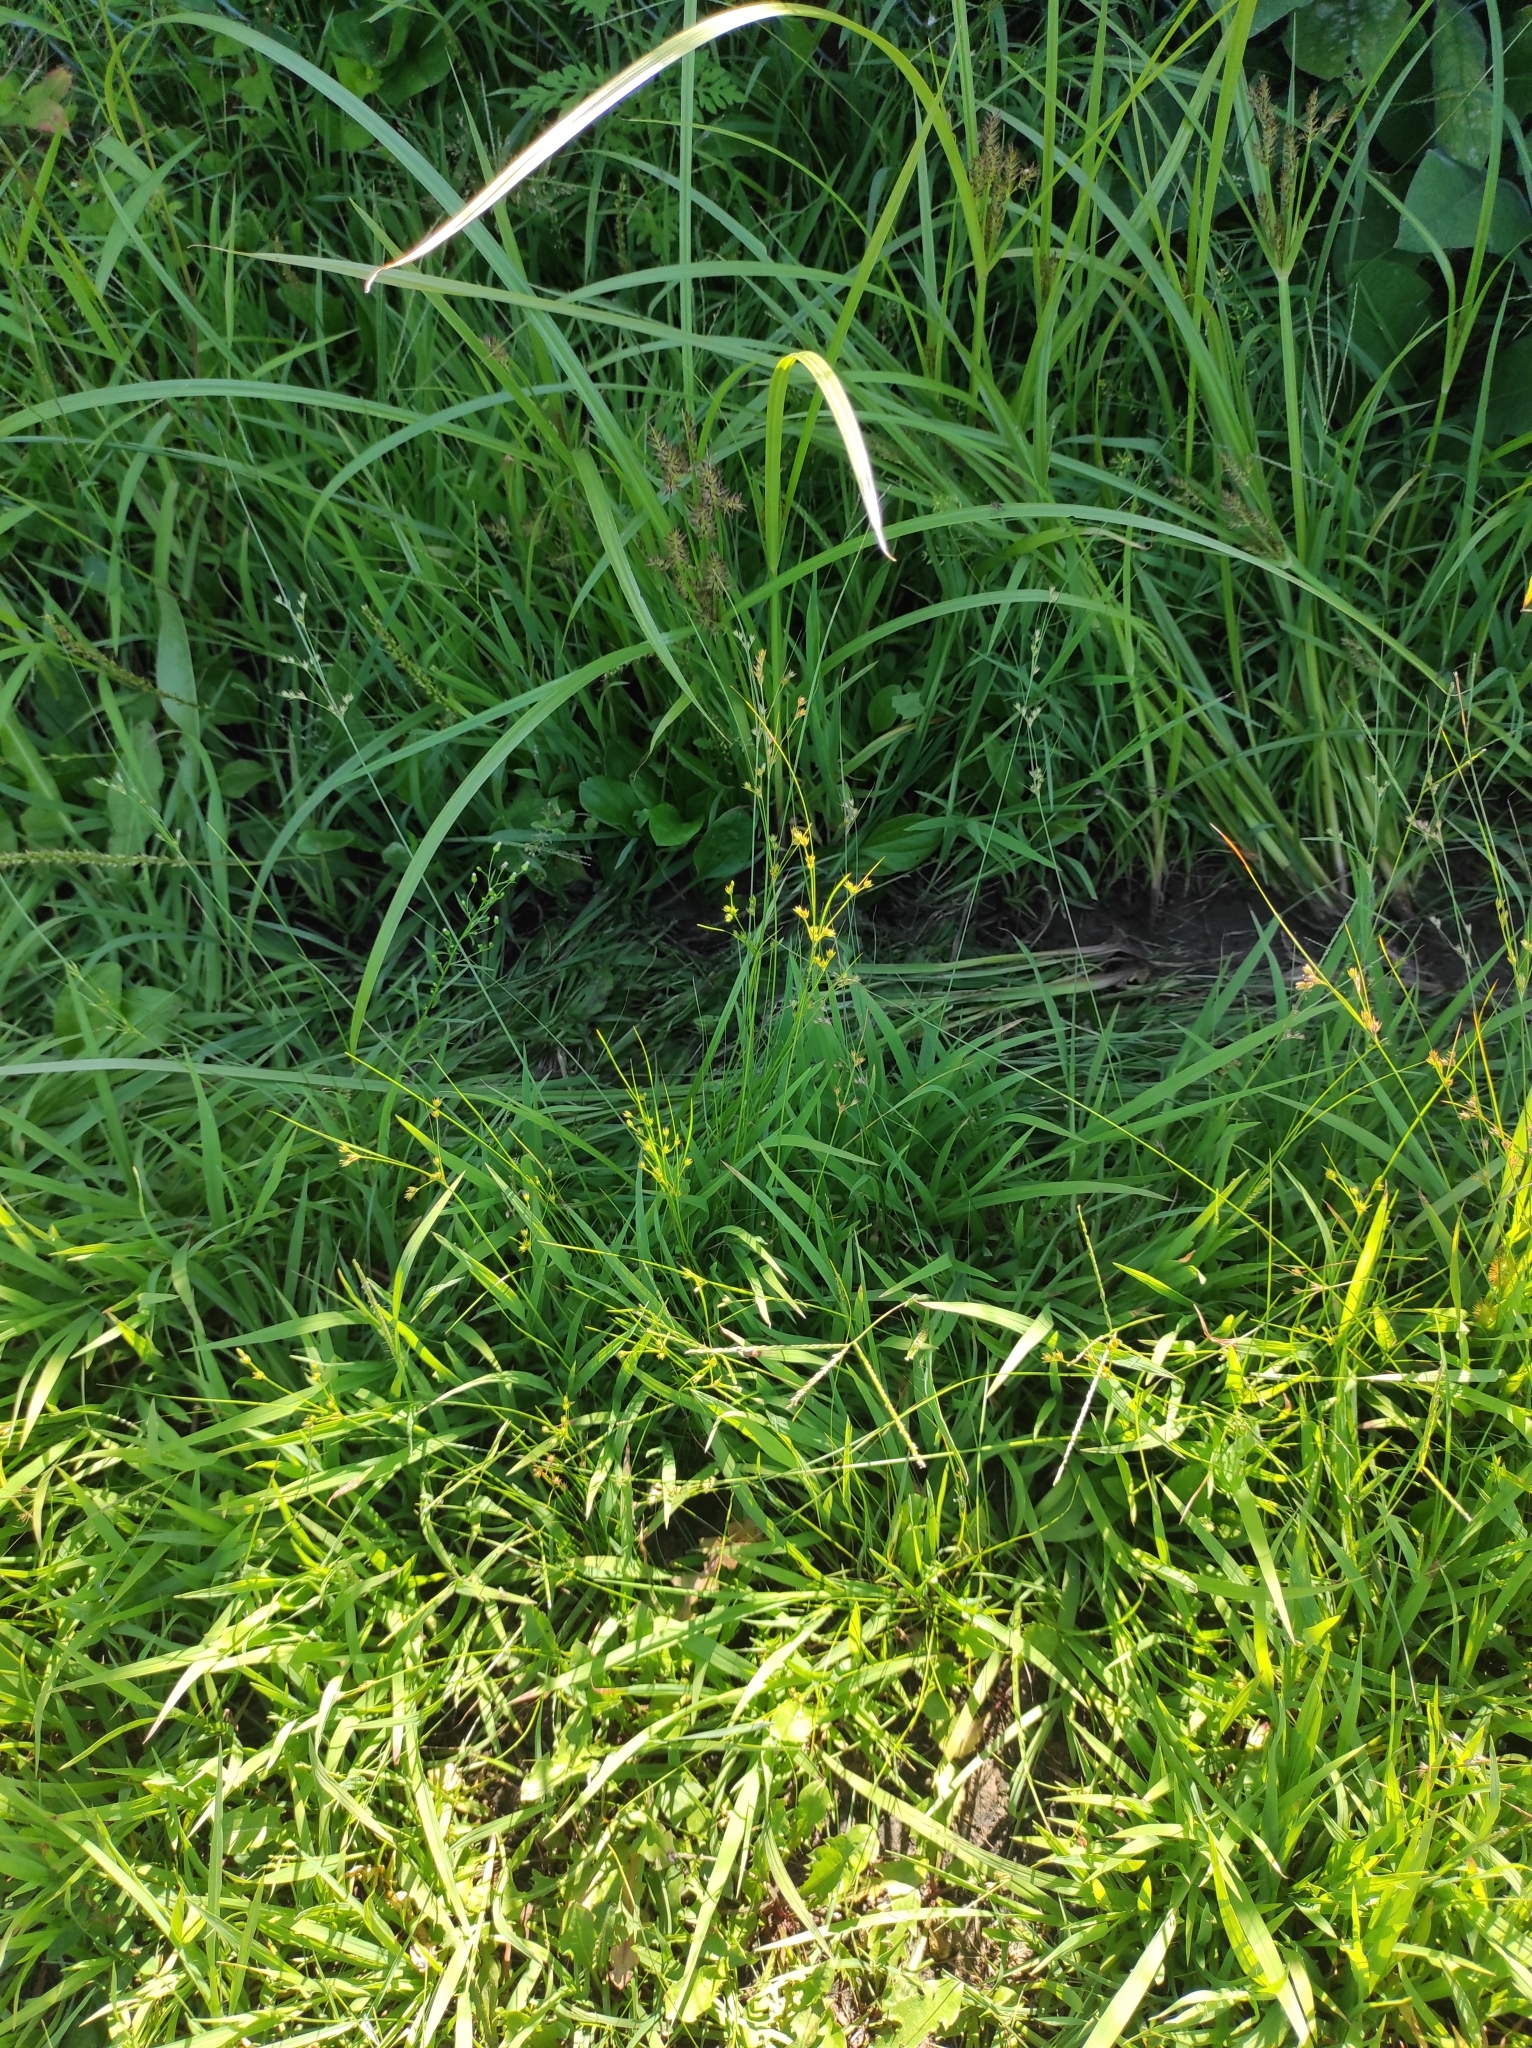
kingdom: Plantae
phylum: Tracheophyta
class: Liliopsida
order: Poales
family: Juncaceae
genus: Juncus
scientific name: Juncus tenuis
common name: Slender rush
